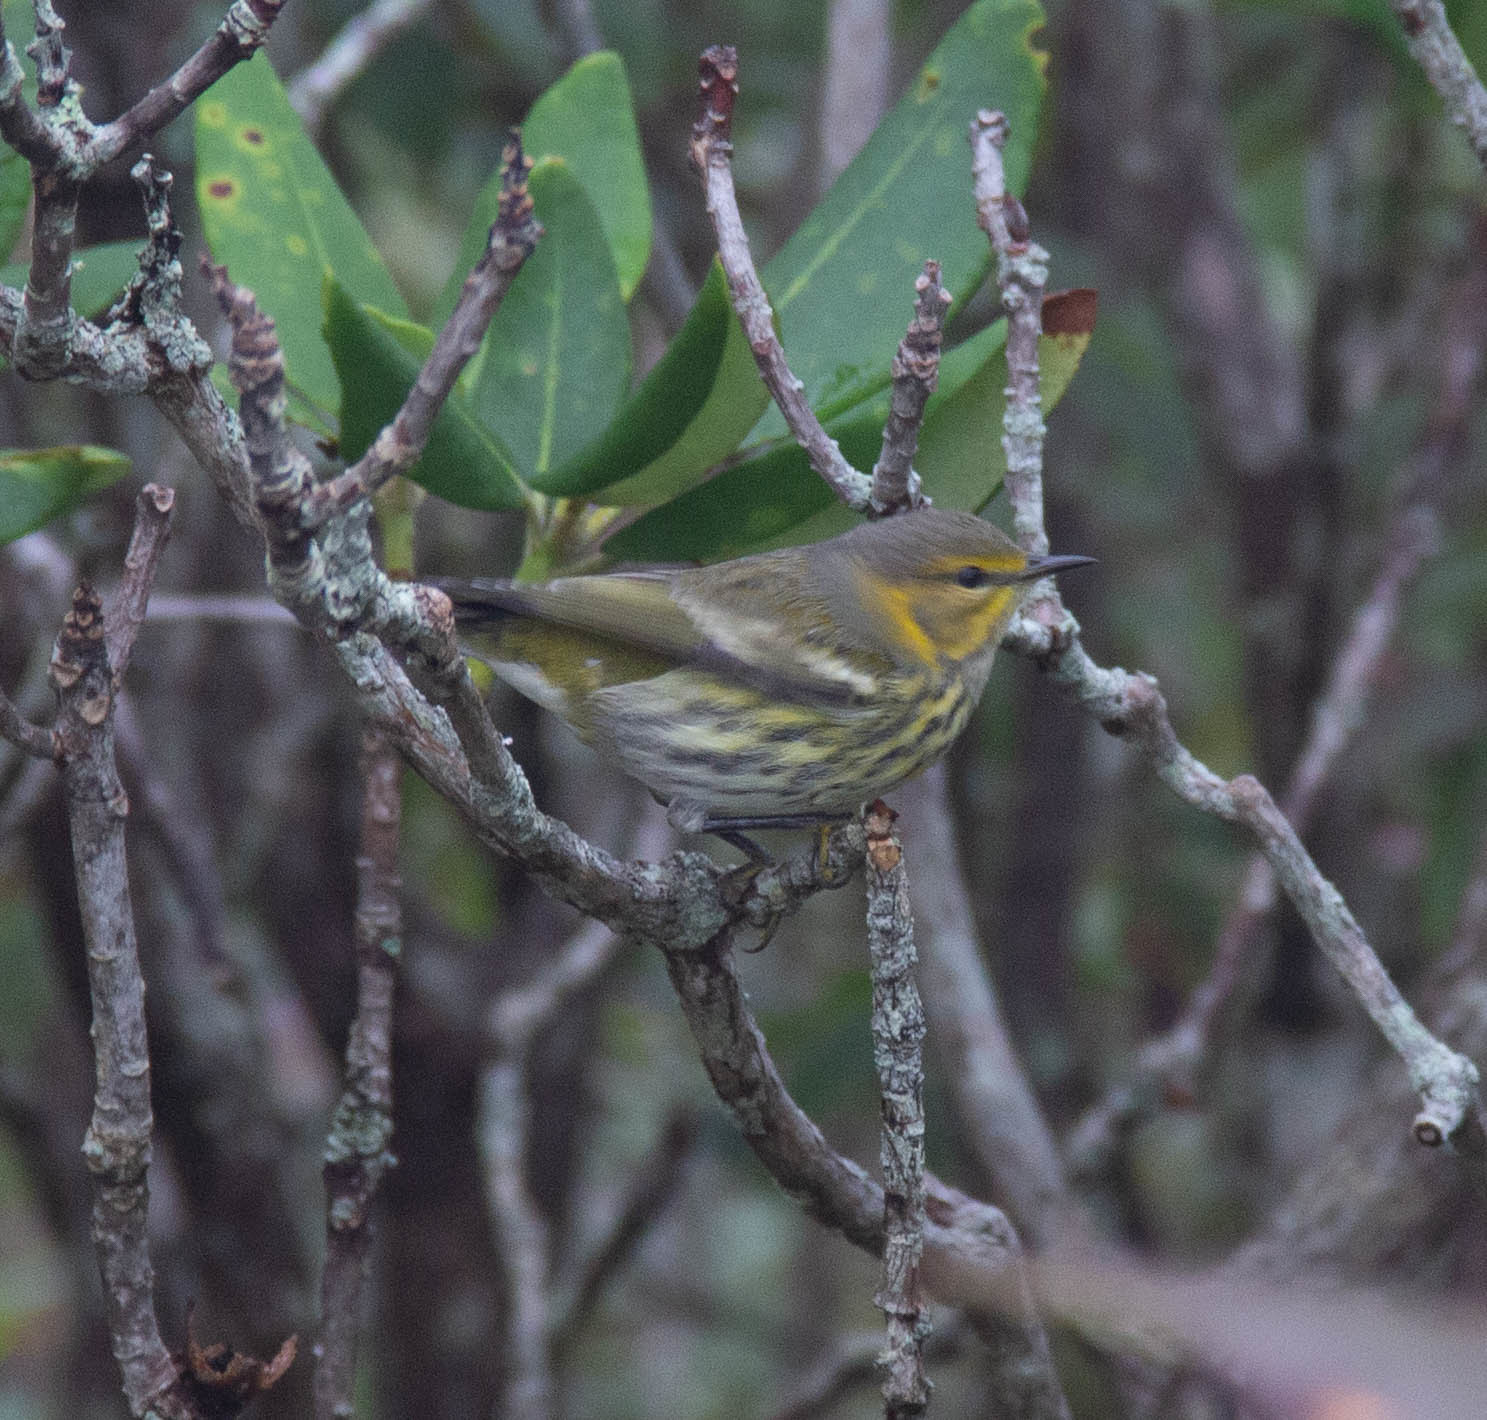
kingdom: Animalia
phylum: Chordata
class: Aves
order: Passeriformes
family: Parulidae
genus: Setophaga
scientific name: Setophaga tigrina
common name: Cape may warbler
